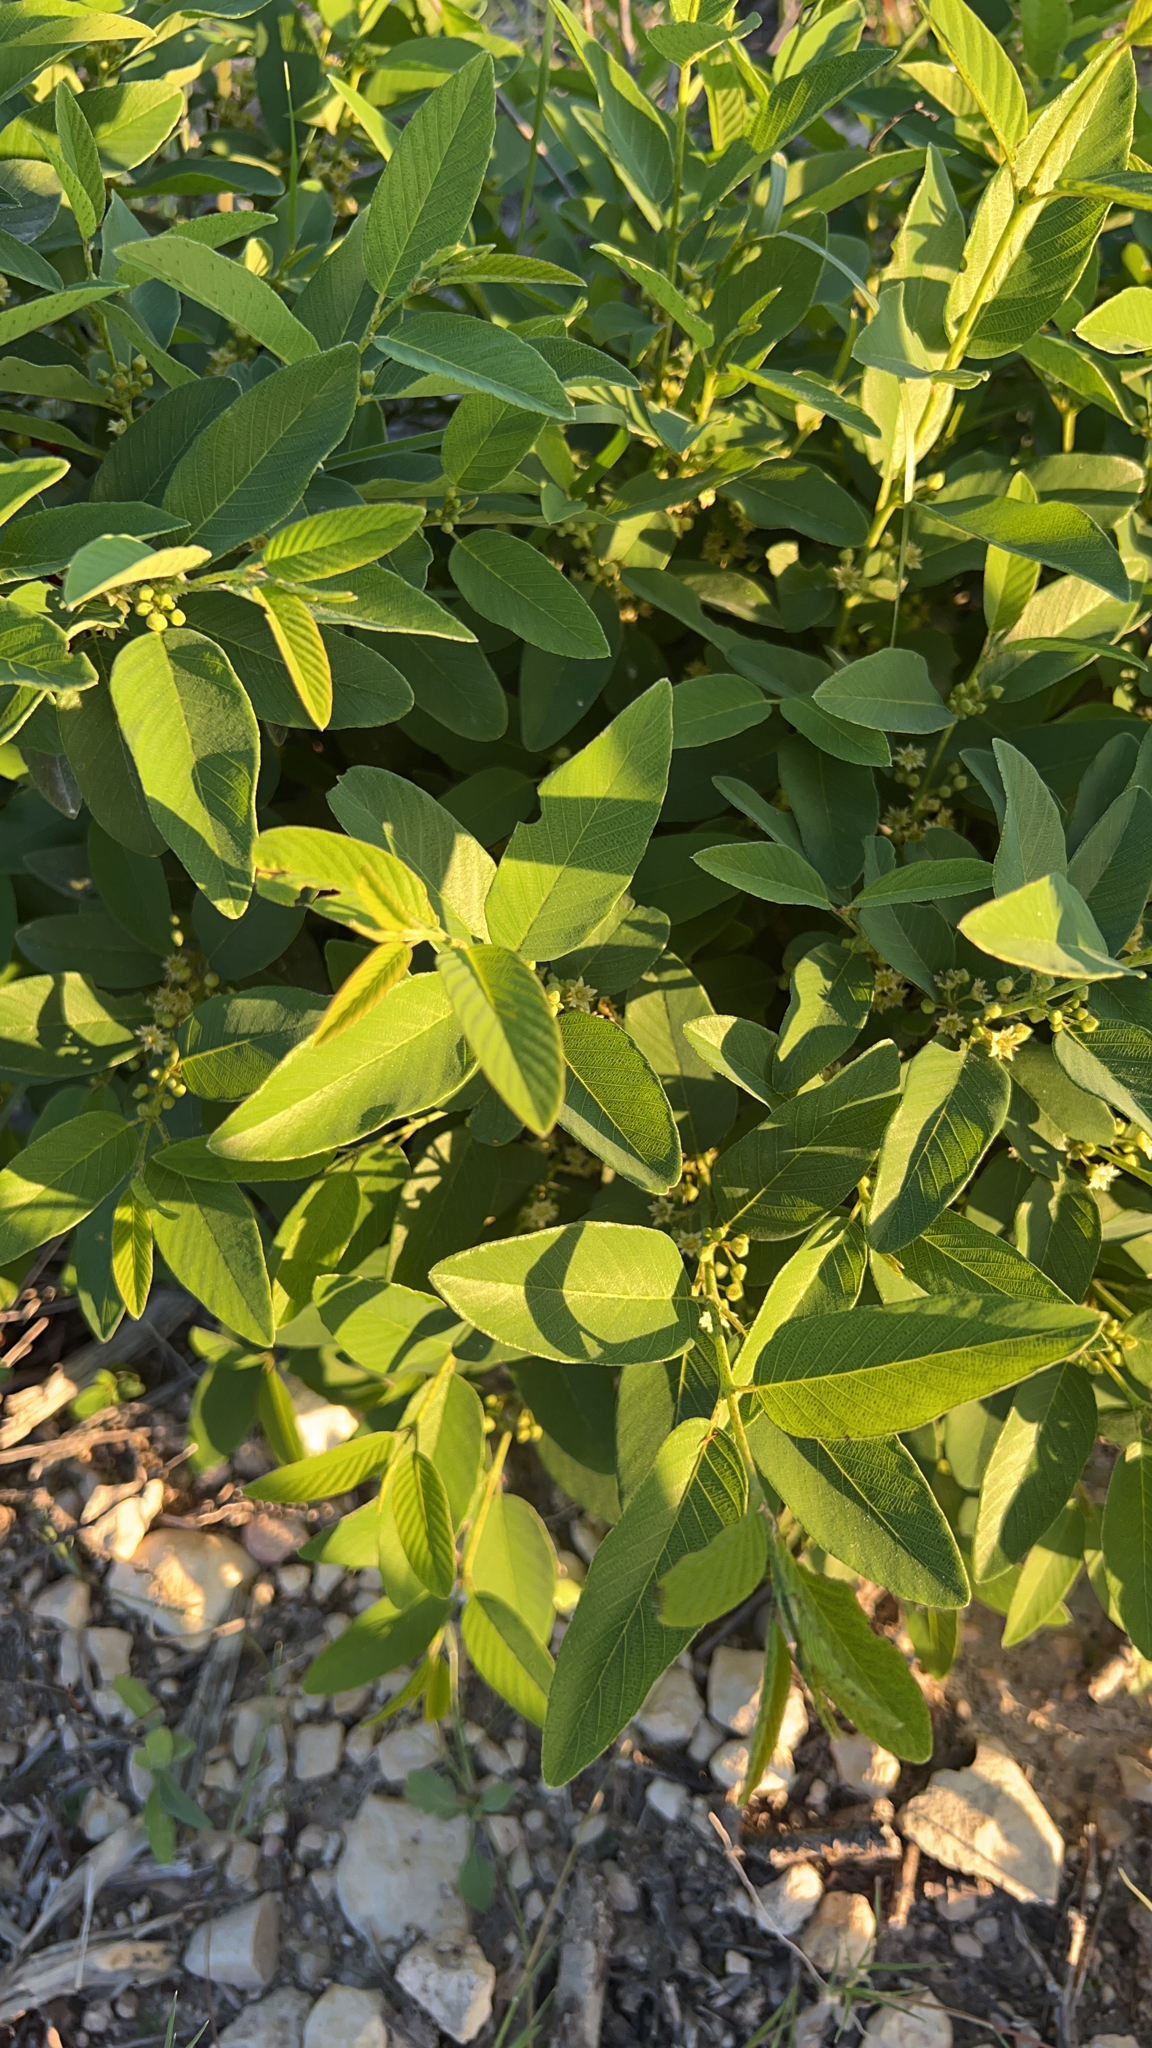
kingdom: Plantae
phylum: Tracheophyta
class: Magnoliopsida
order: Rosales
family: Rhamnaceae
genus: Karwinskia
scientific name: Karwinskia humboldtiana
